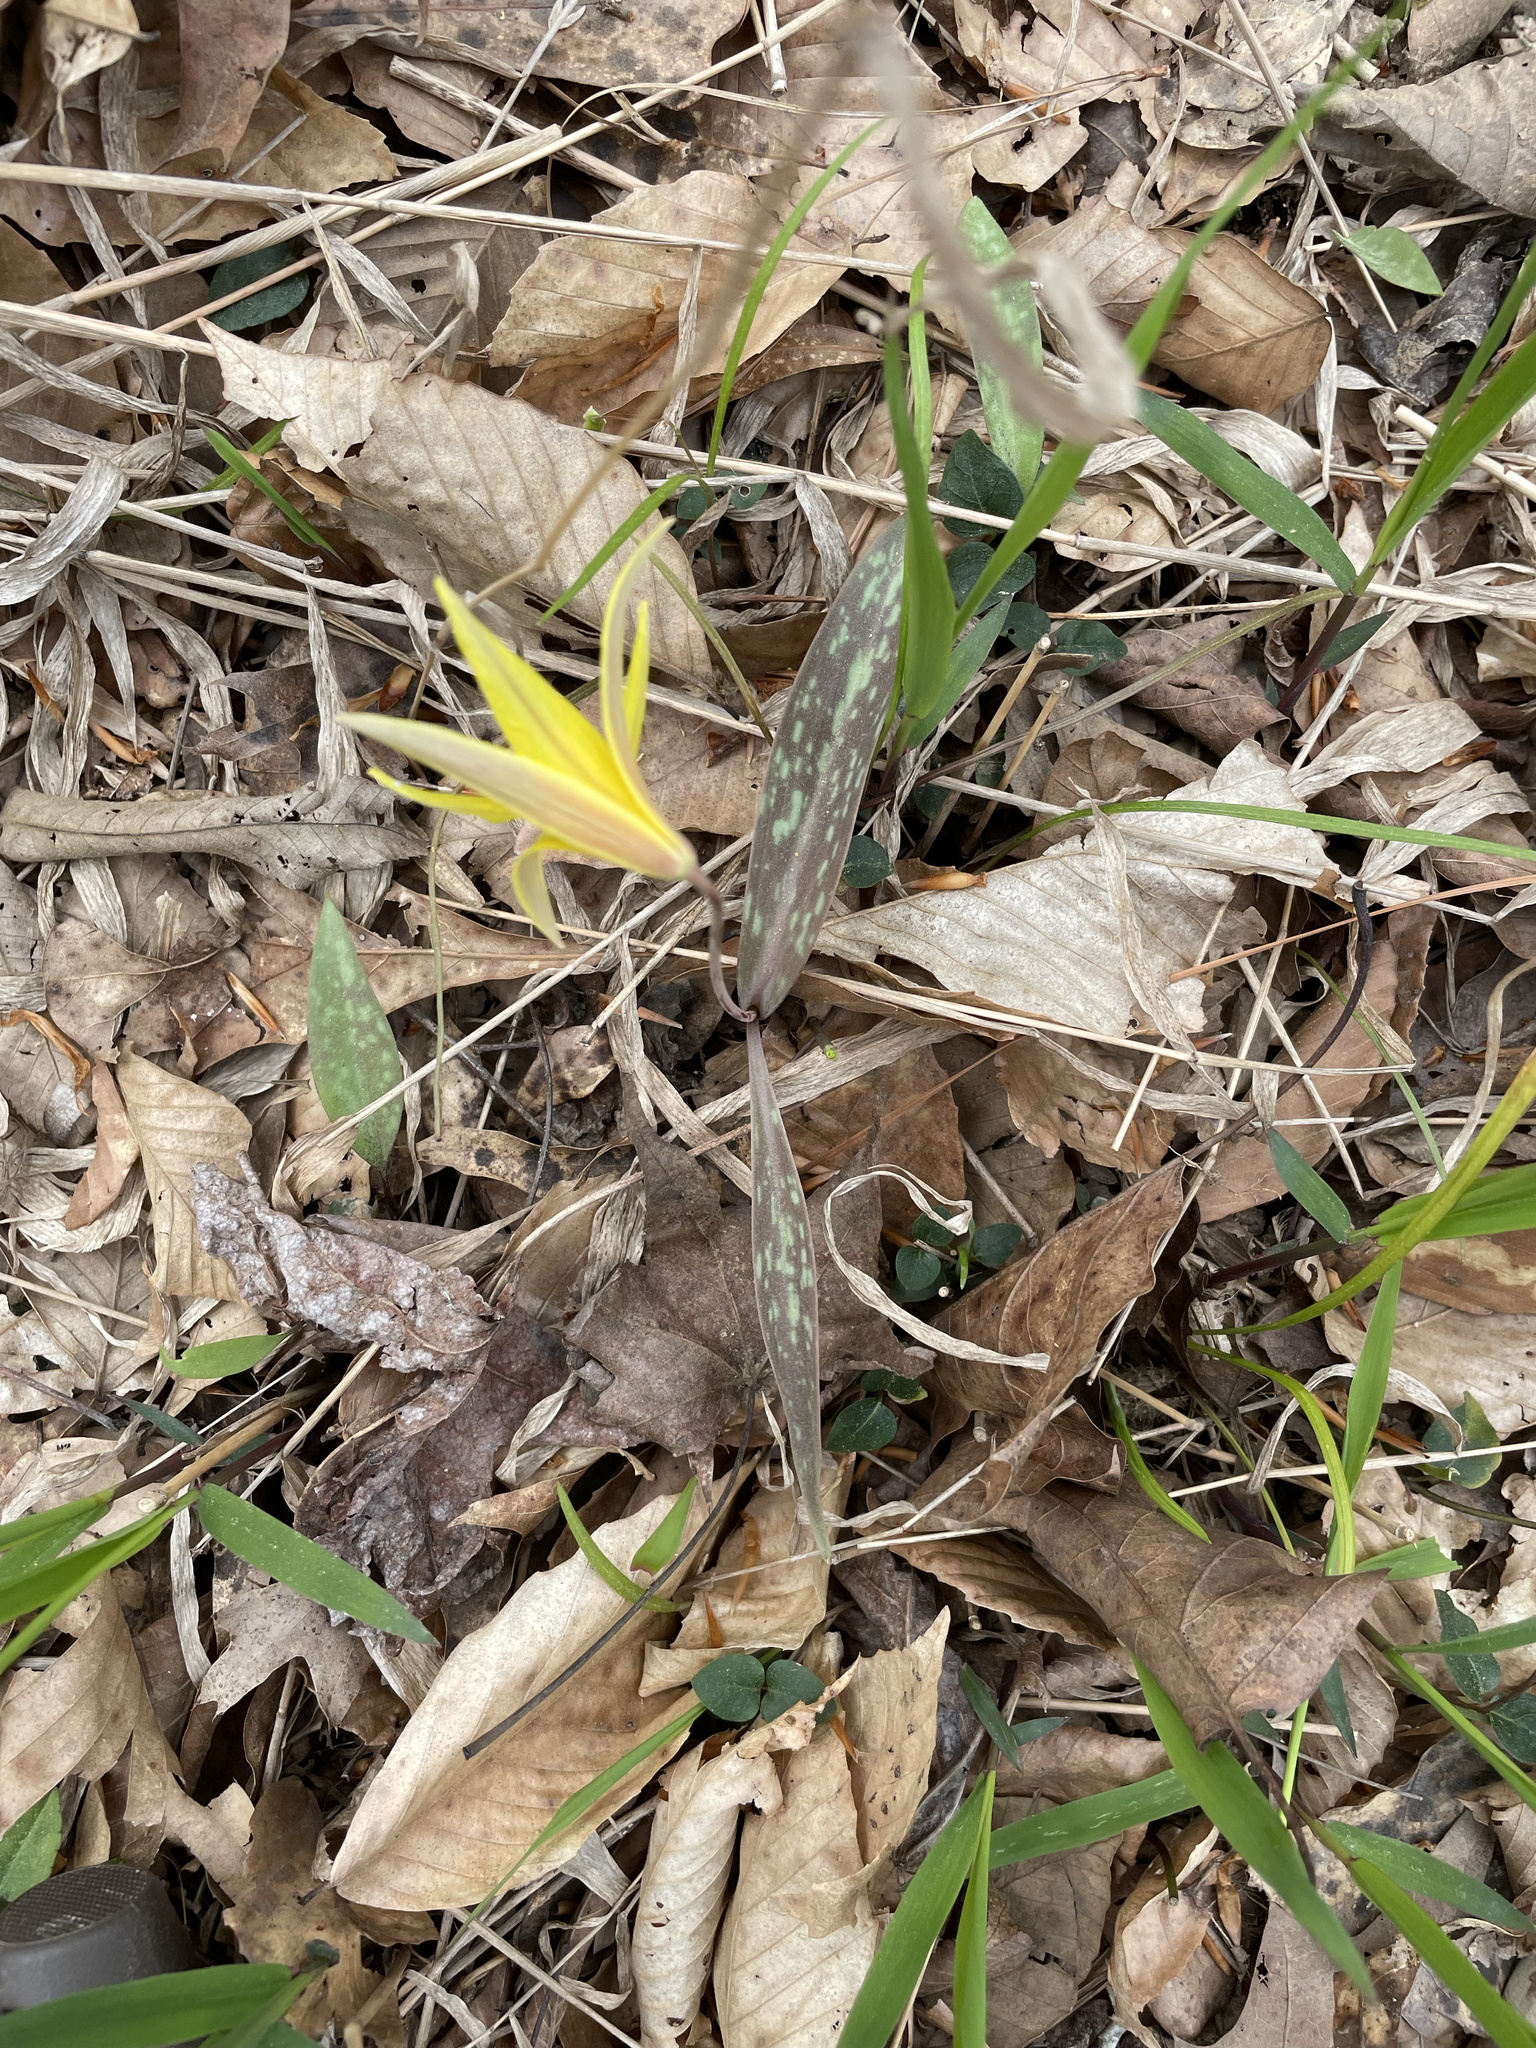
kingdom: Plantae
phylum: Tracheophyta
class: Liliopsida
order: Liliales
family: Liliaceae
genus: Erythronium
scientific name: Erythronium americanum
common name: Yellow adder's-tongue
